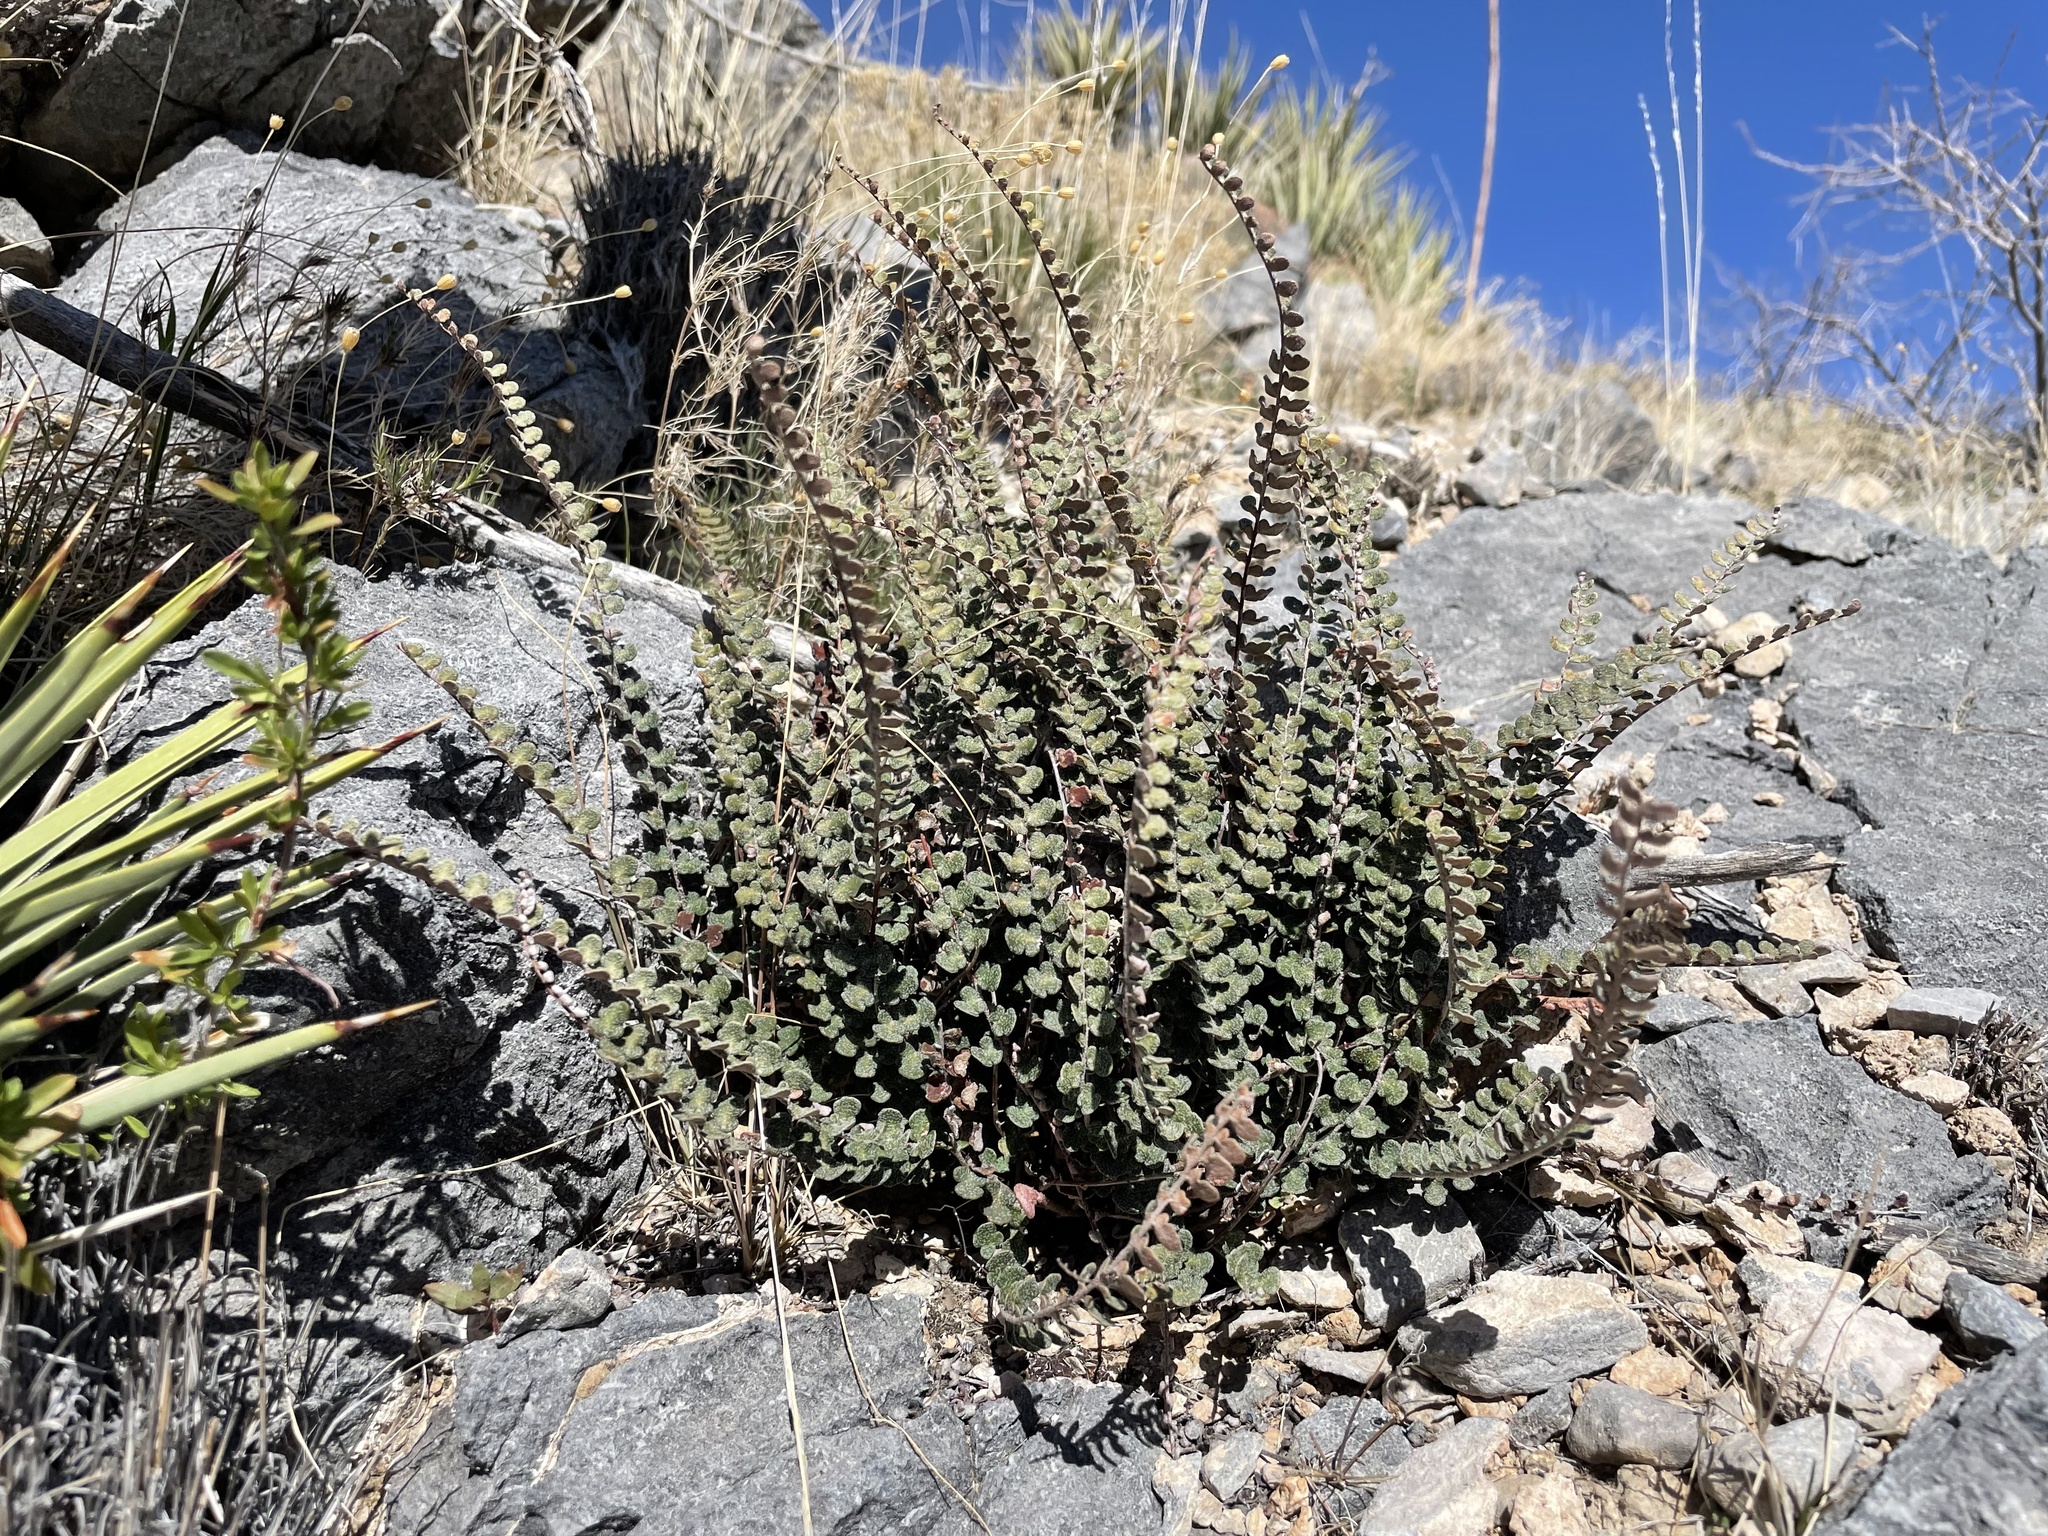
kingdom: Plantae
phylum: Tracheophyta
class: Polypodiopsida
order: Polypodiales
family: Pteridaceae
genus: Astrolepis
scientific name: Astrolepis cochisensis
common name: Scaly cloak fern
